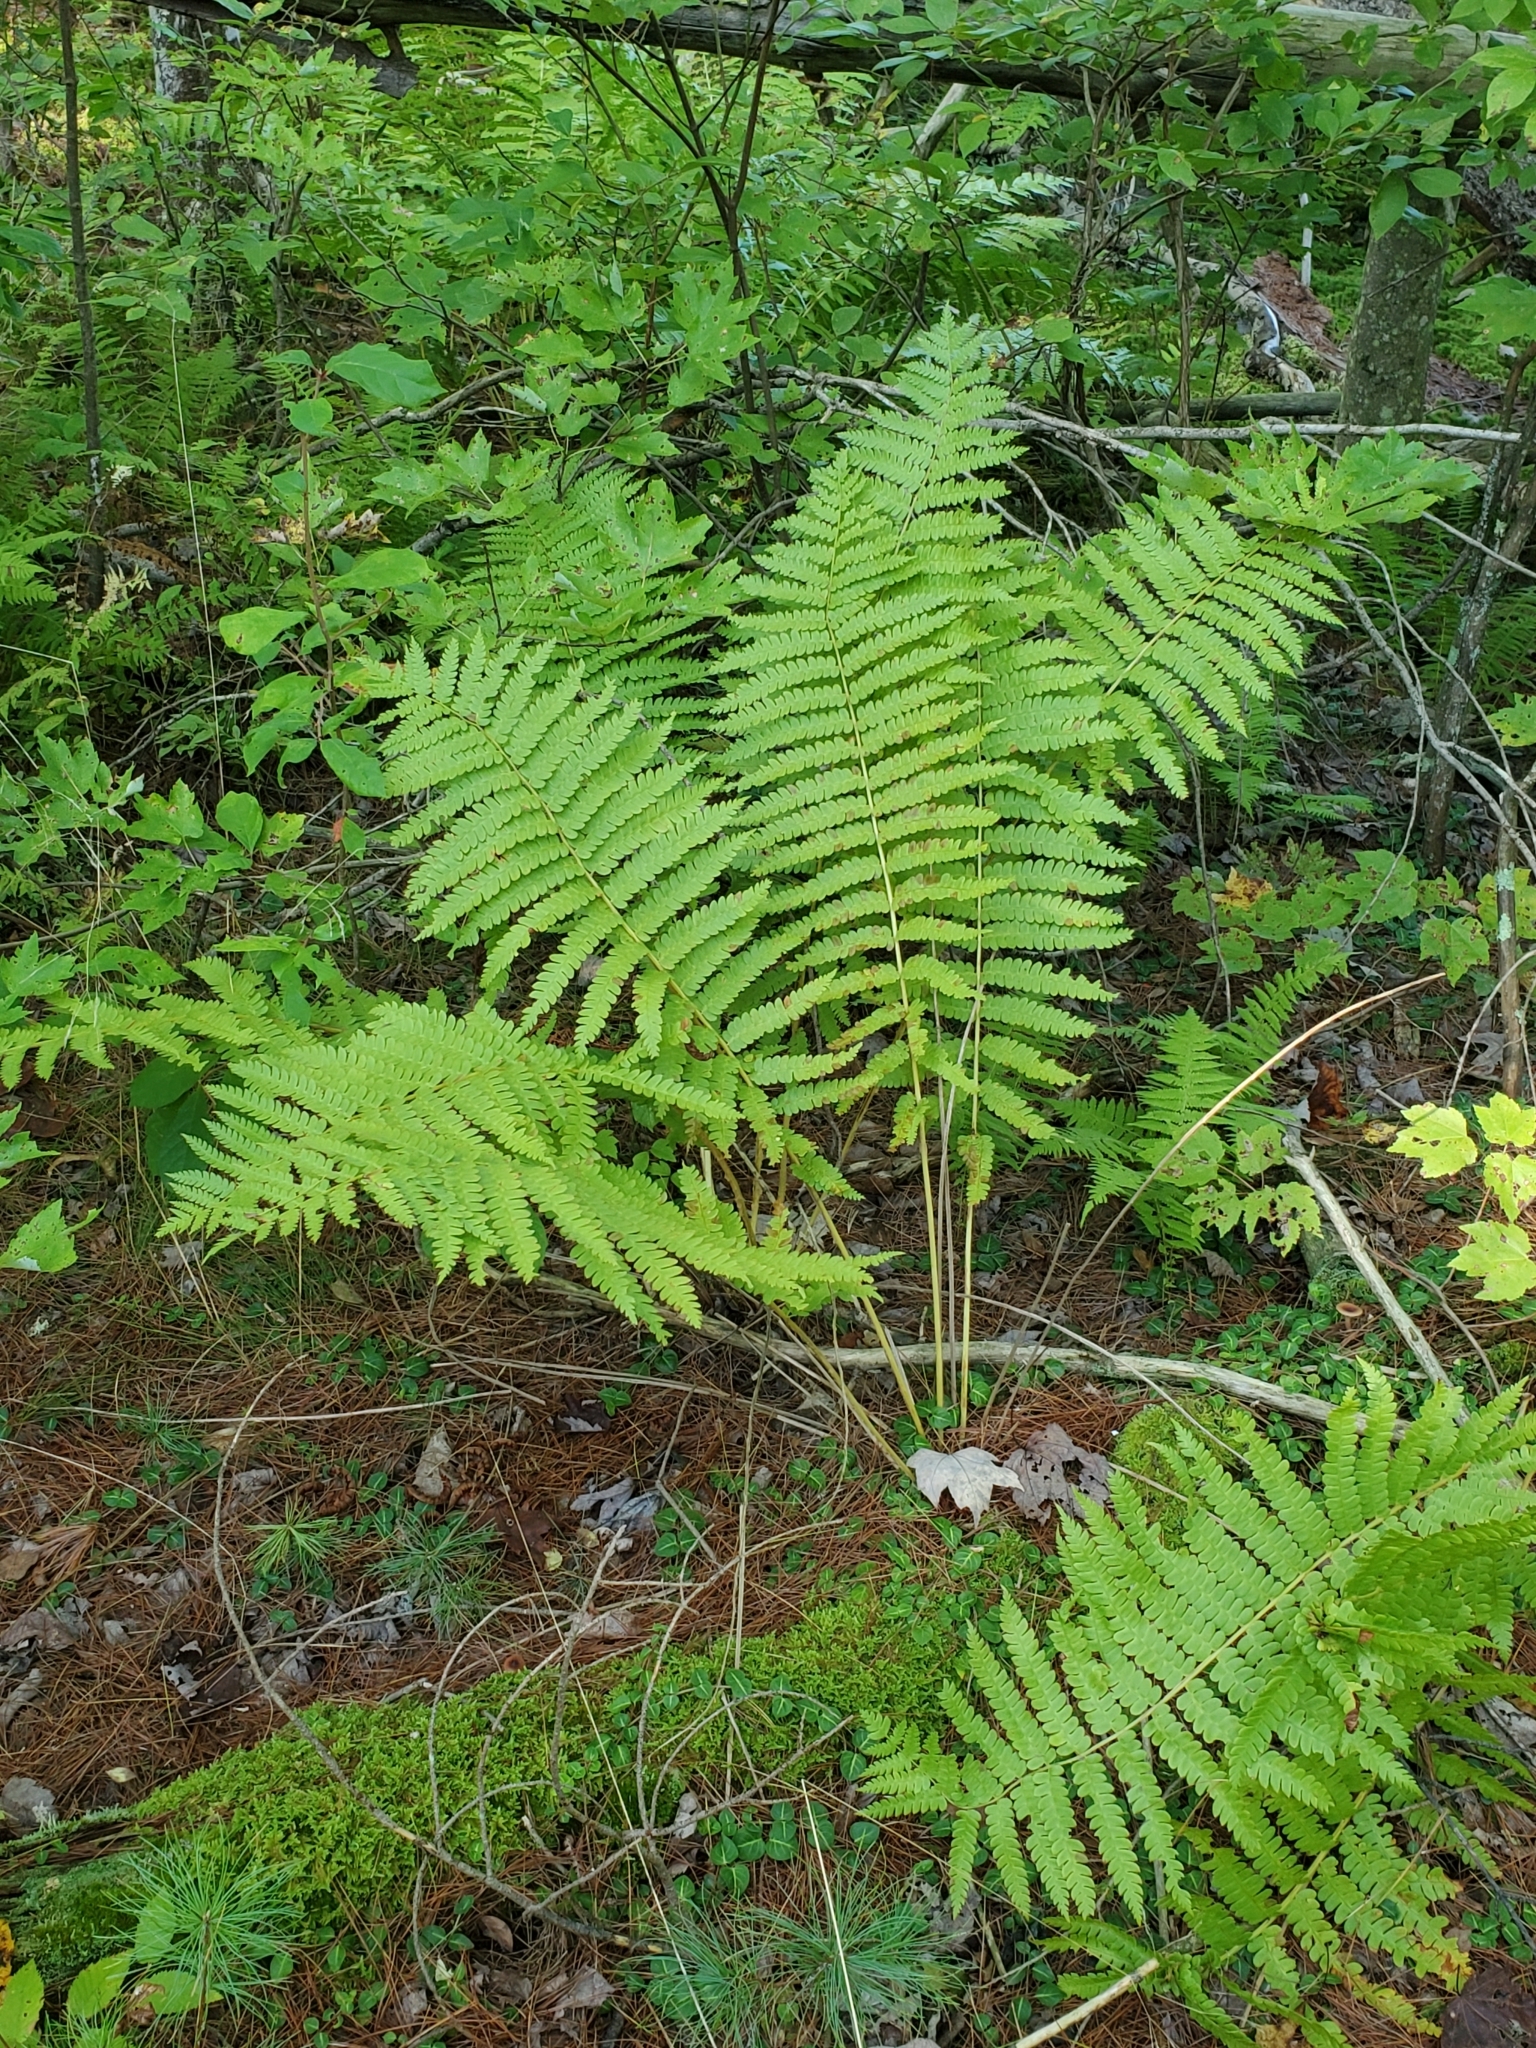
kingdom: Plantae
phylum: Tracheophyta
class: Polypodiopsida
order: Osmundales
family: Osmundaceae
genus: Osmundastrum
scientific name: Osmundastrum cinnamomeum
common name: Cinnamon fern
